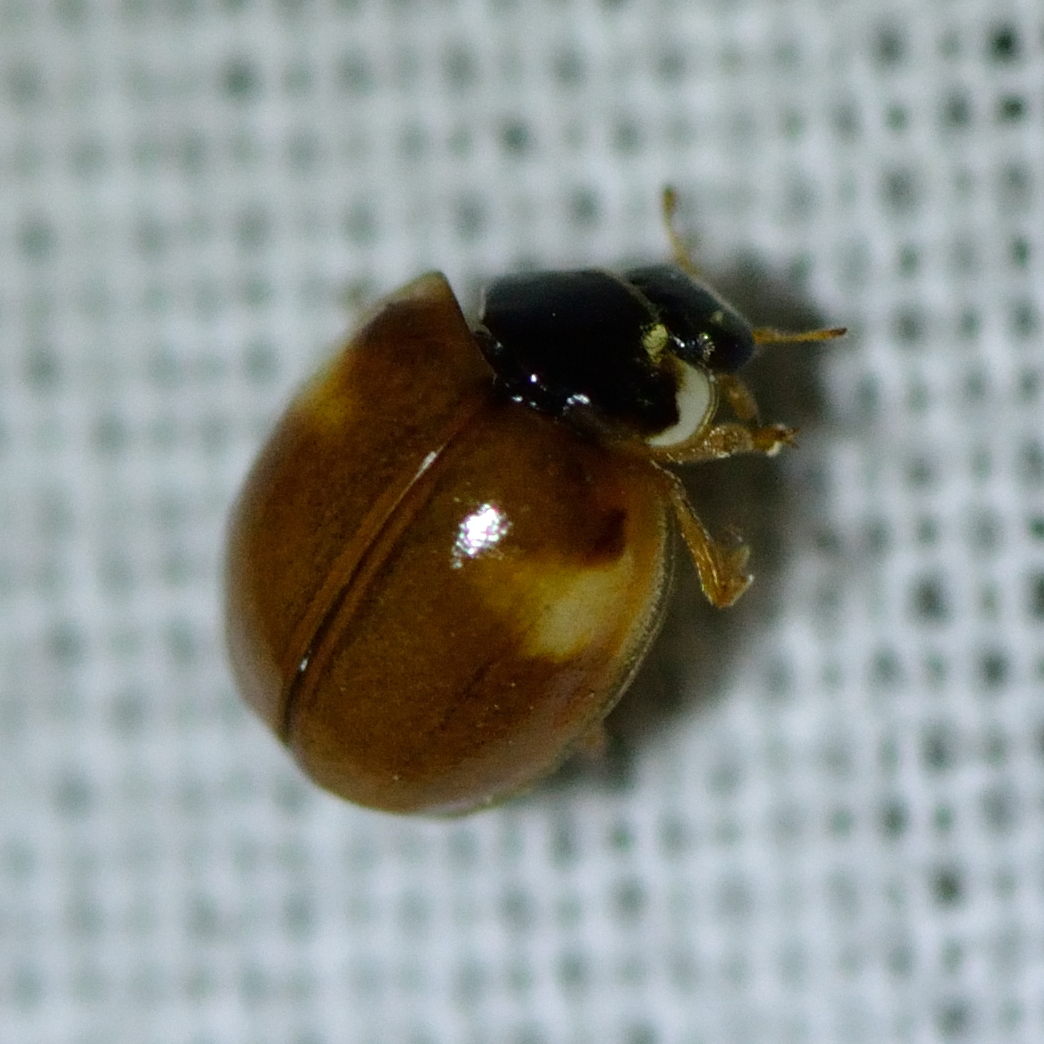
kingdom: Animalia
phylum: Arthropoda
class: Insecta
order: Coleoptera
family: Coccinellidae
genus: Adalia
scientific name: Adalia decempunctata
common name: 10-spot ladybird
